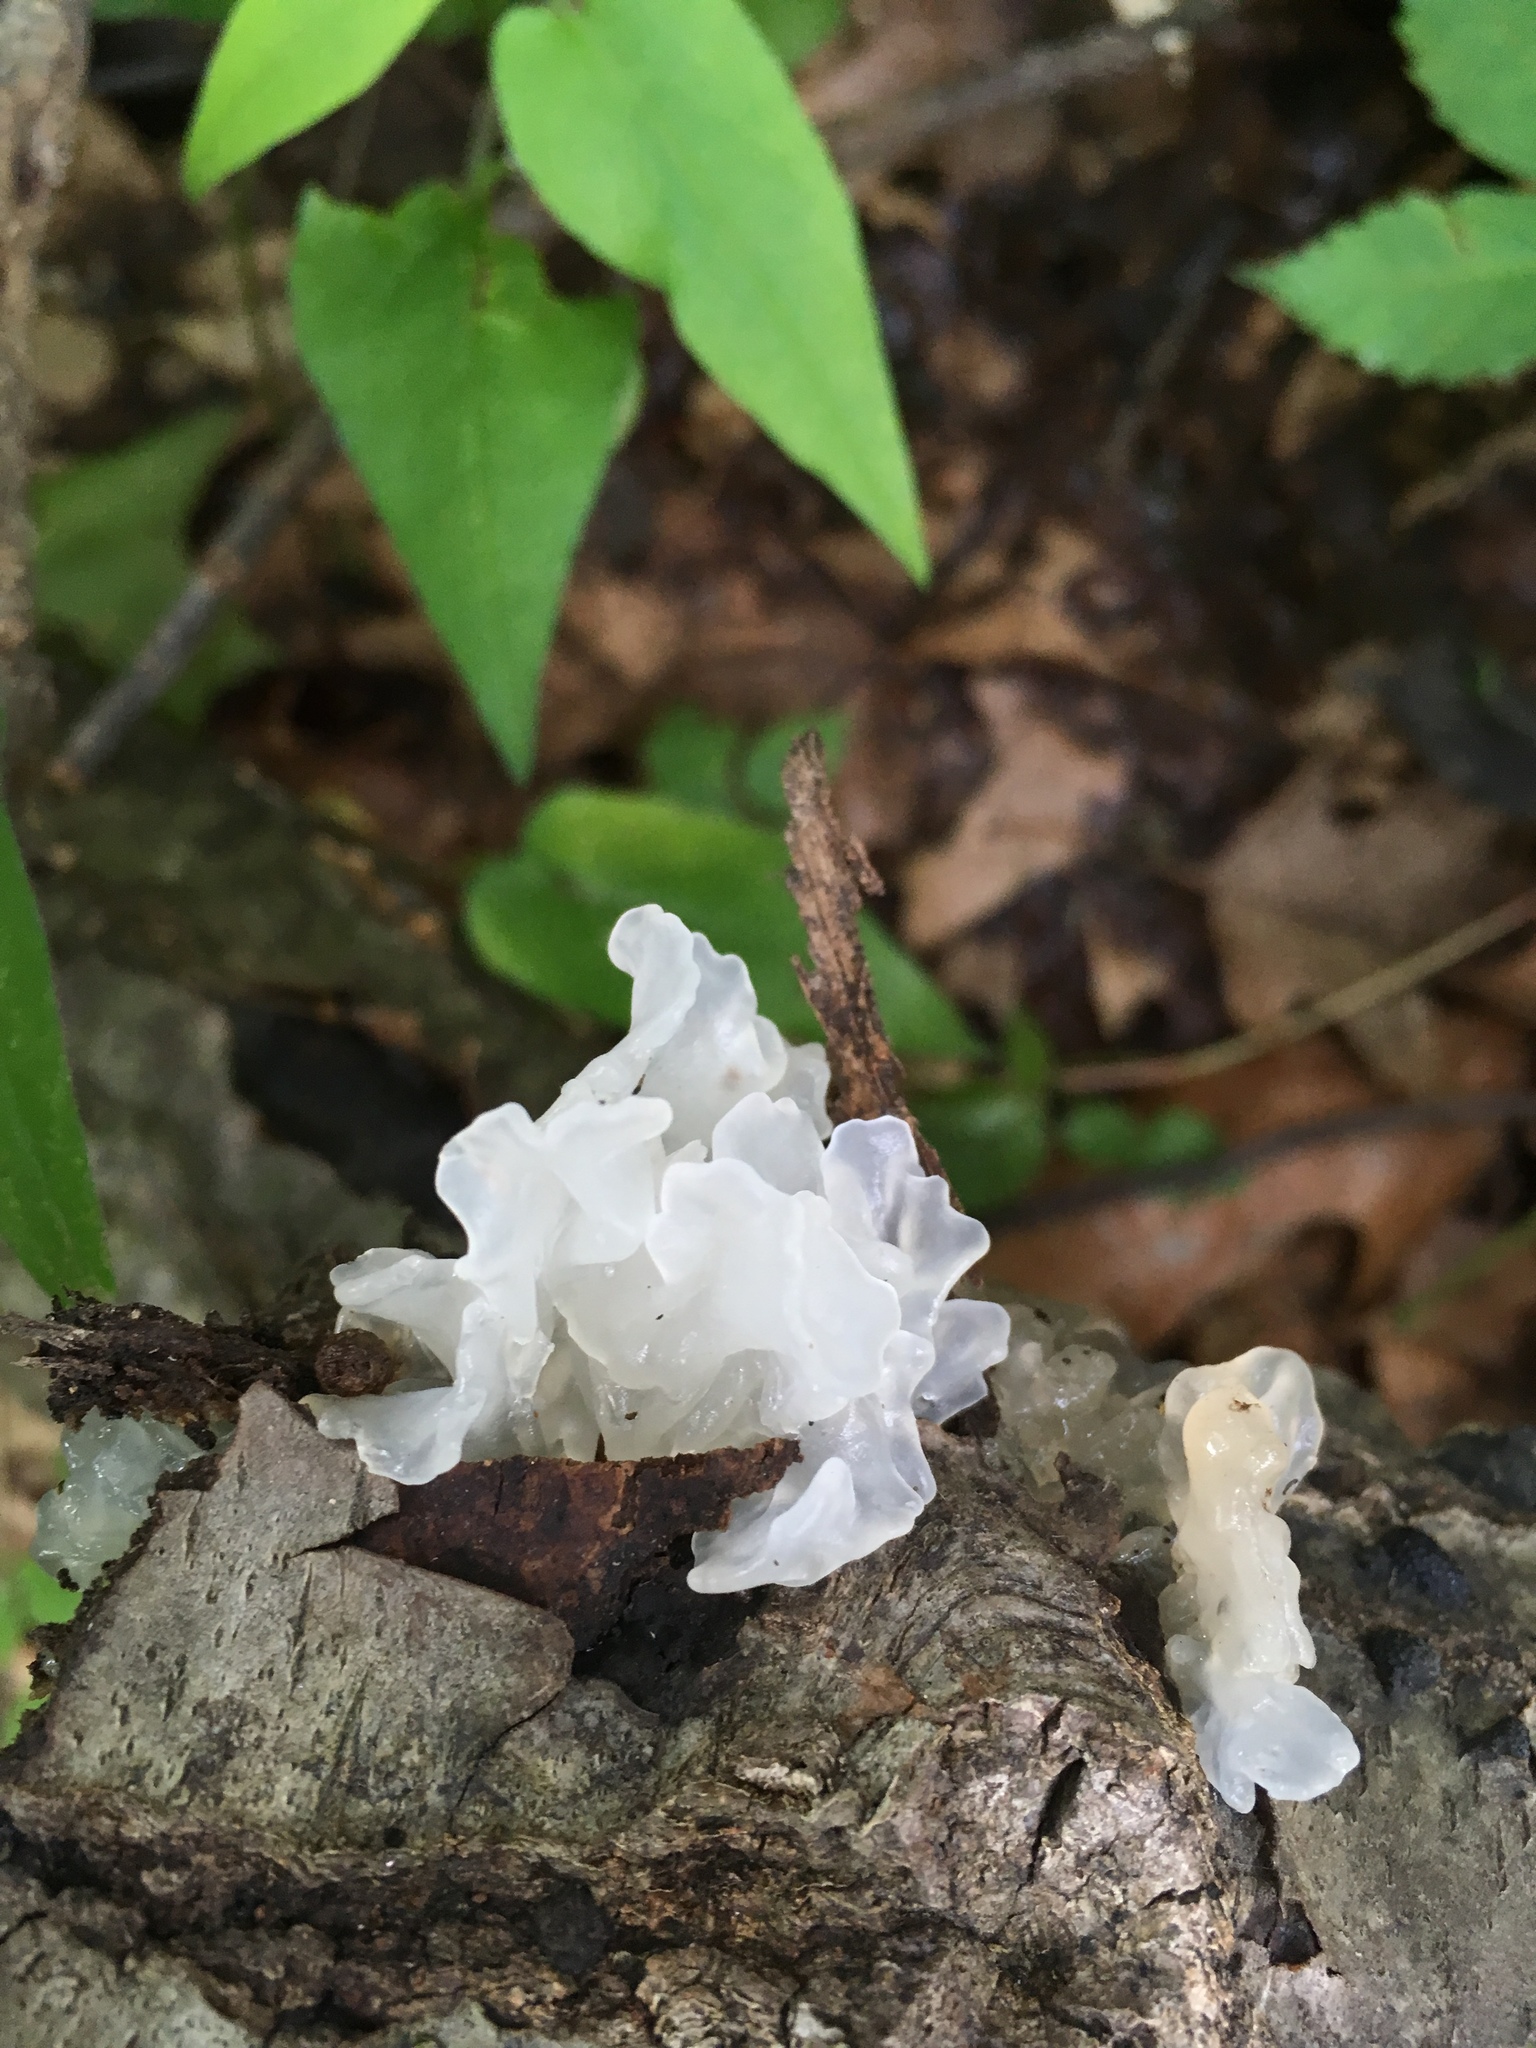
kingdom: Fungi
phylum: Basidiomycota
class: Tremellomycetes
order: Tremellales
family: Tremellaceae
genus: Tremella
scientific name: Tremella fuciformis
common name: Snow fungus
